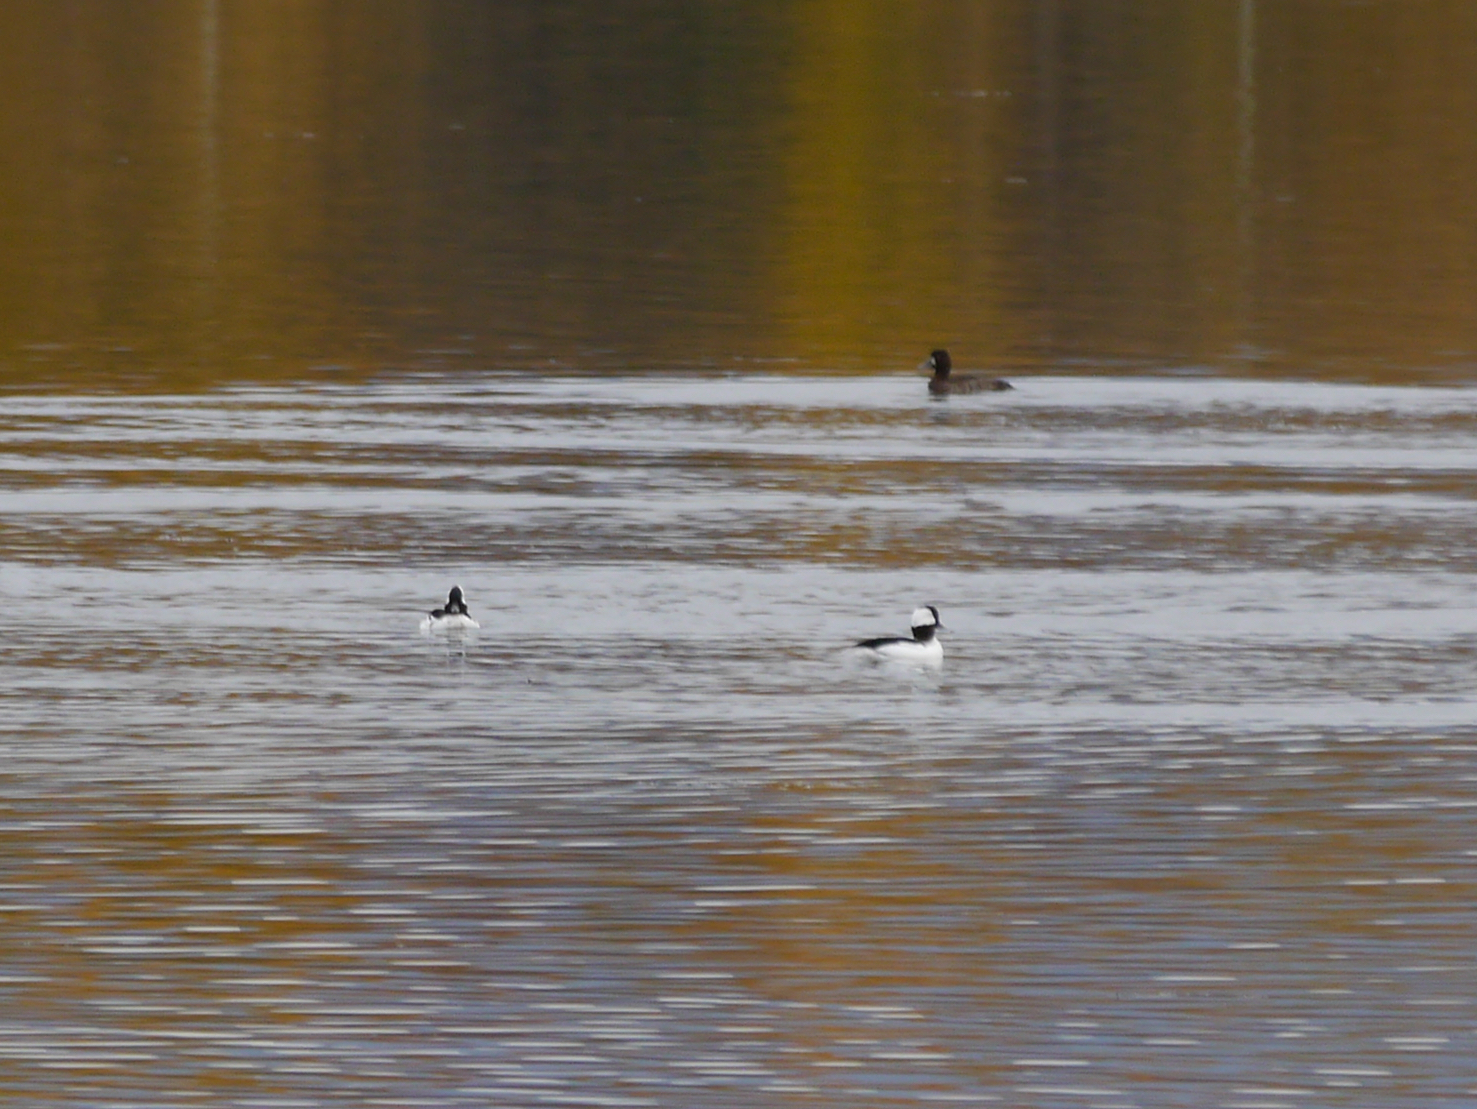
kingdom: Animalia
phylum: Chordata
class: Aves
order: Anseriformes
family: Anatidae
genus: Bucephala
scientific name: Bucephala albeola
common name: Bufflehead
